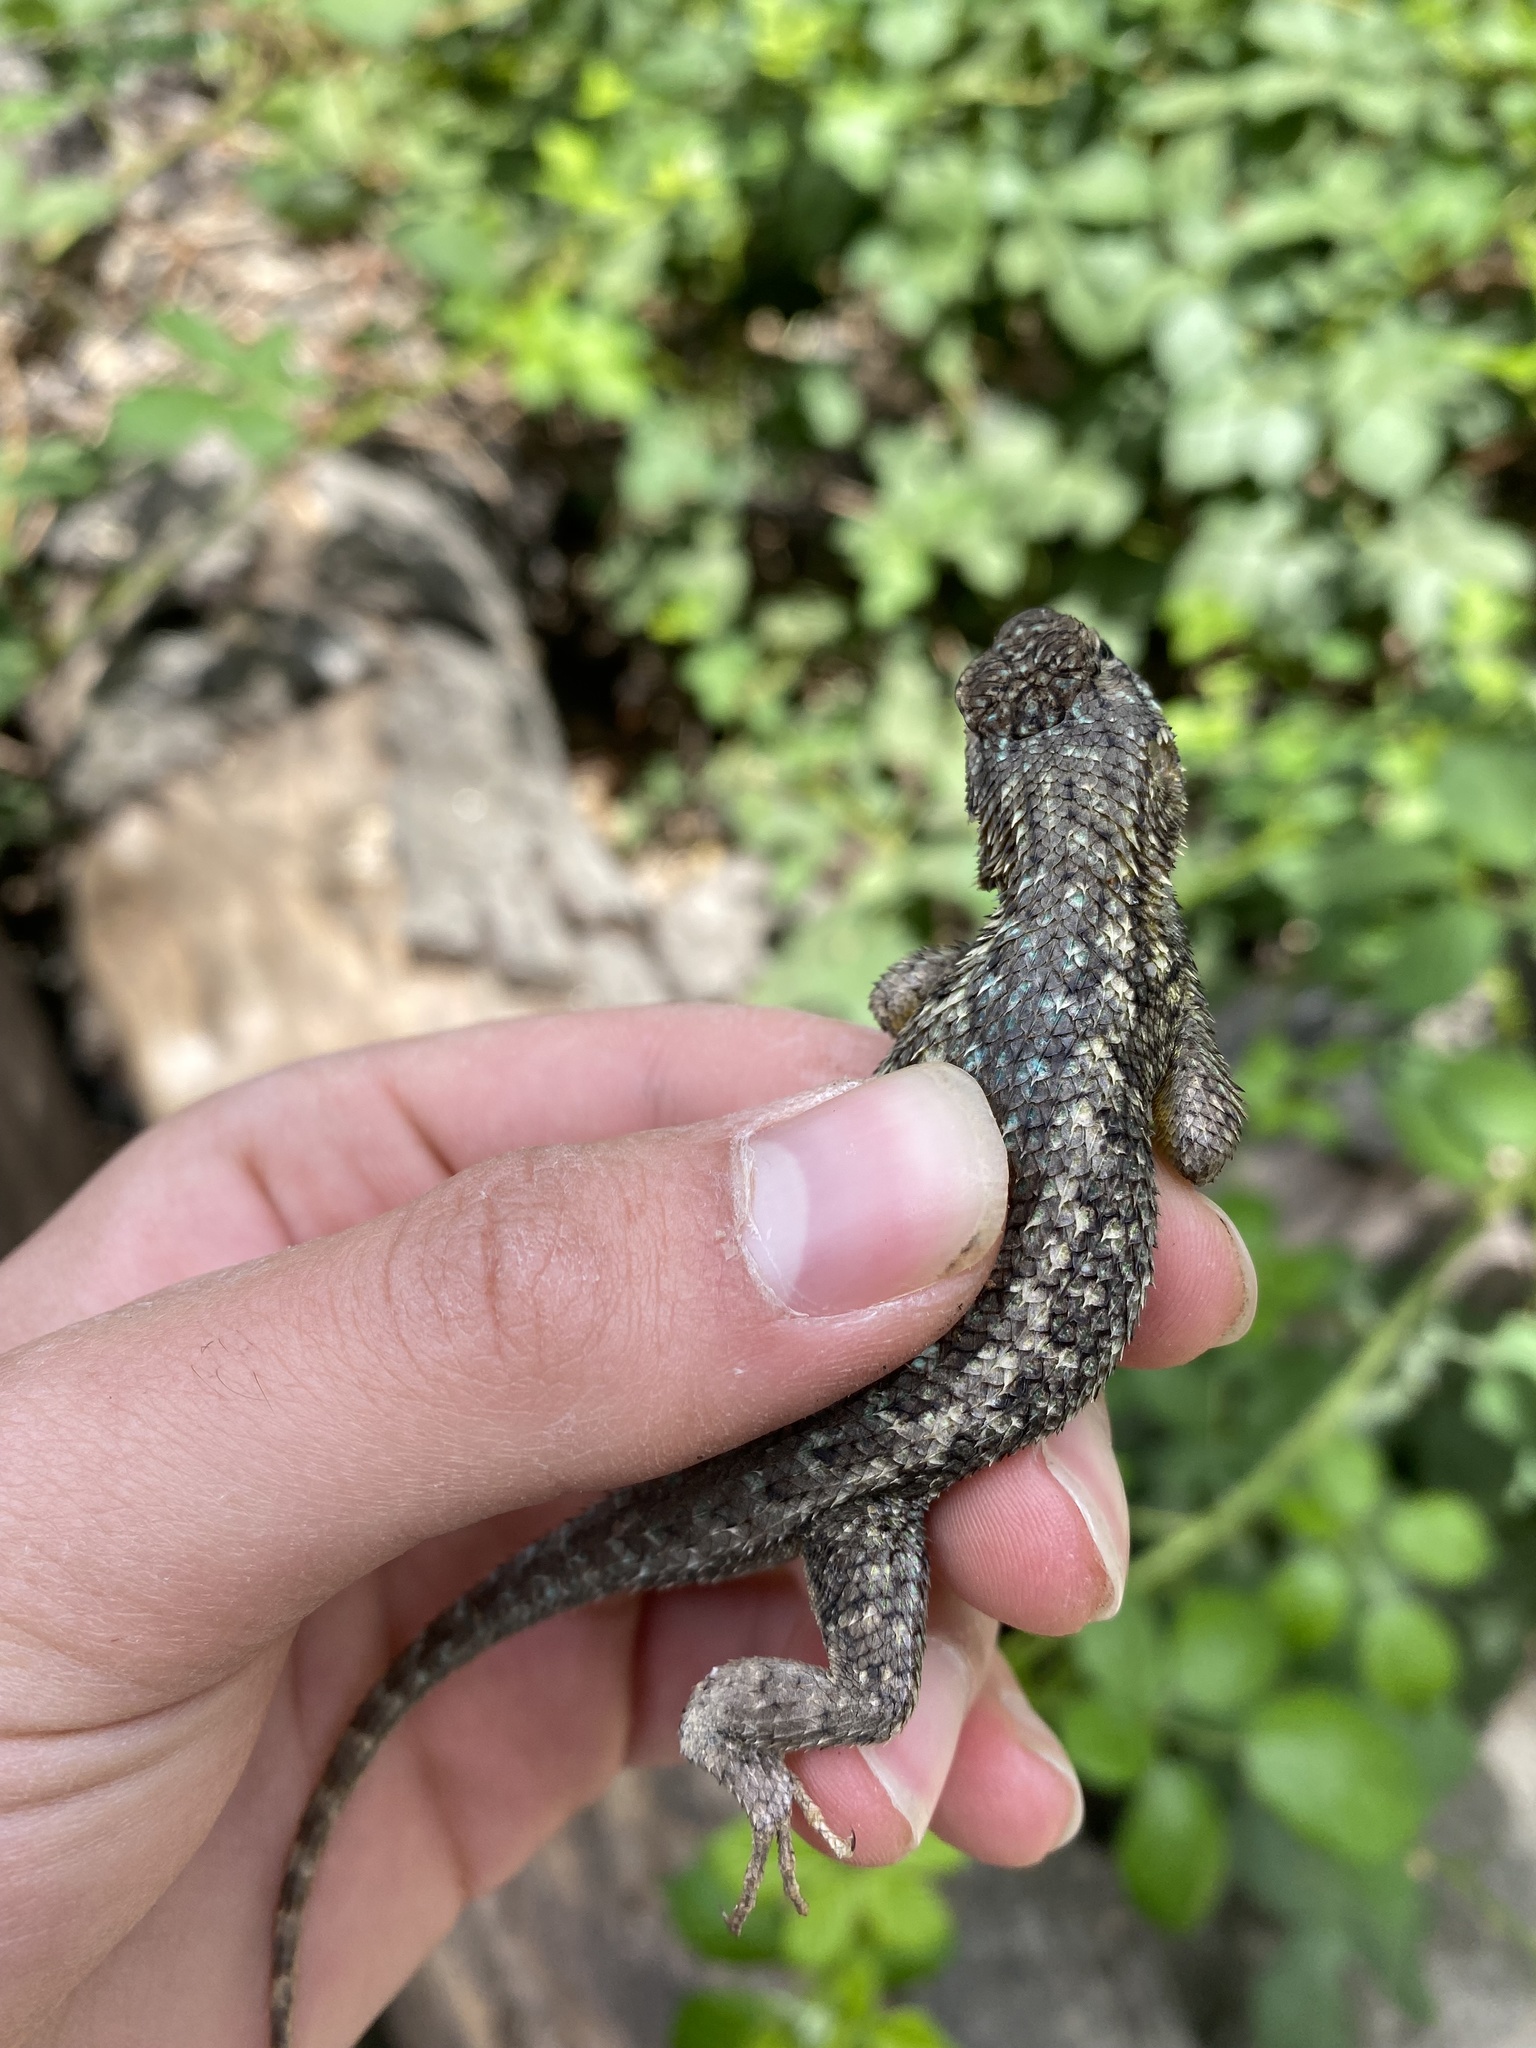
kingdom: Animalia
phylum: Chordata
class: Squamata
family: Phrynosomatidae
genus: Sceloporus
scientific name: Sceloporus occidentalis
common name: Western fence lizard
